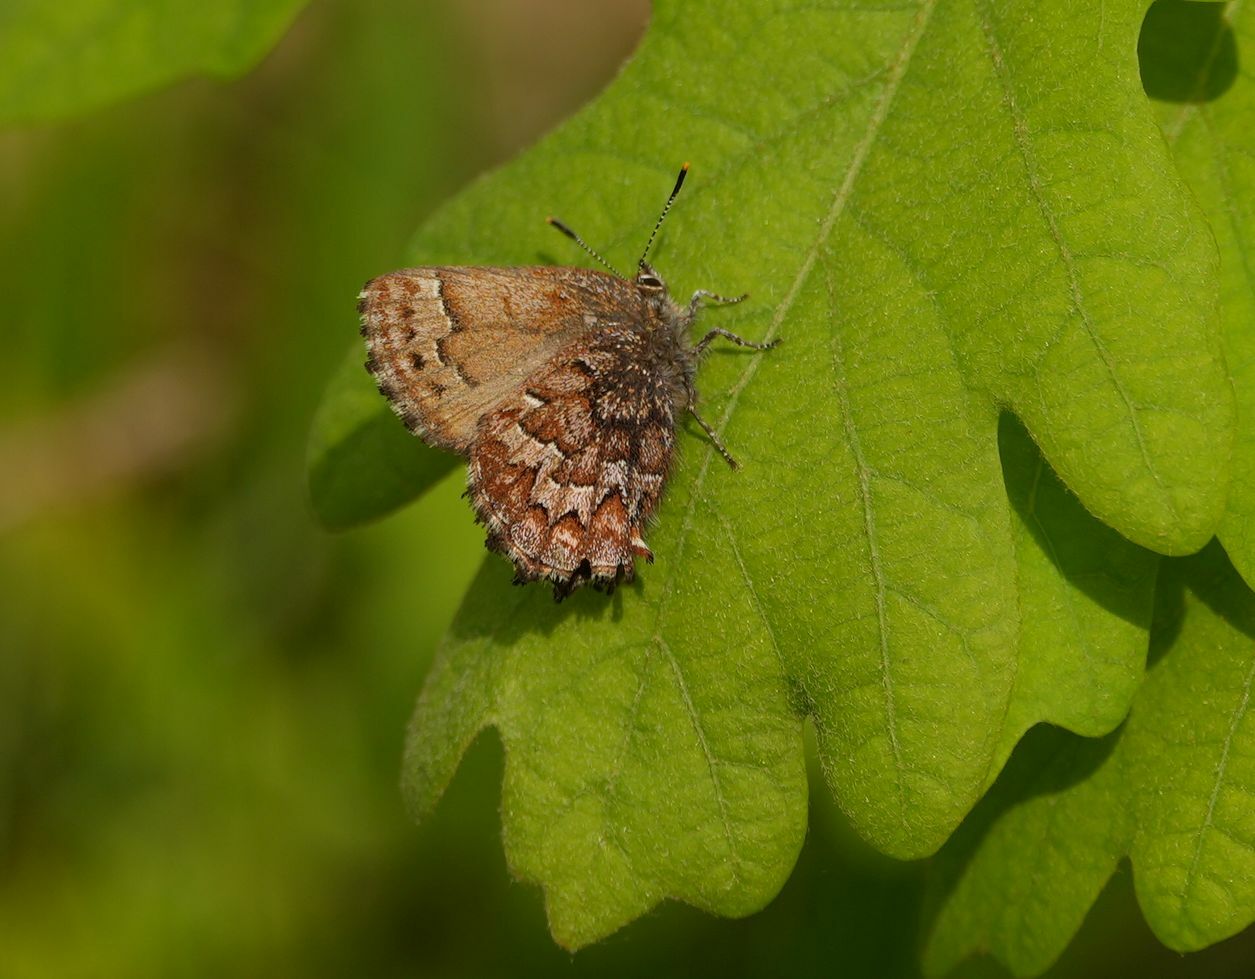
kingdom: Animalia
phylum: Arthropoda
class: Insecta
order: Lepidoptera
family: Lycaenidae
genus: Incisalia
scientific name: Incisalia niphon
